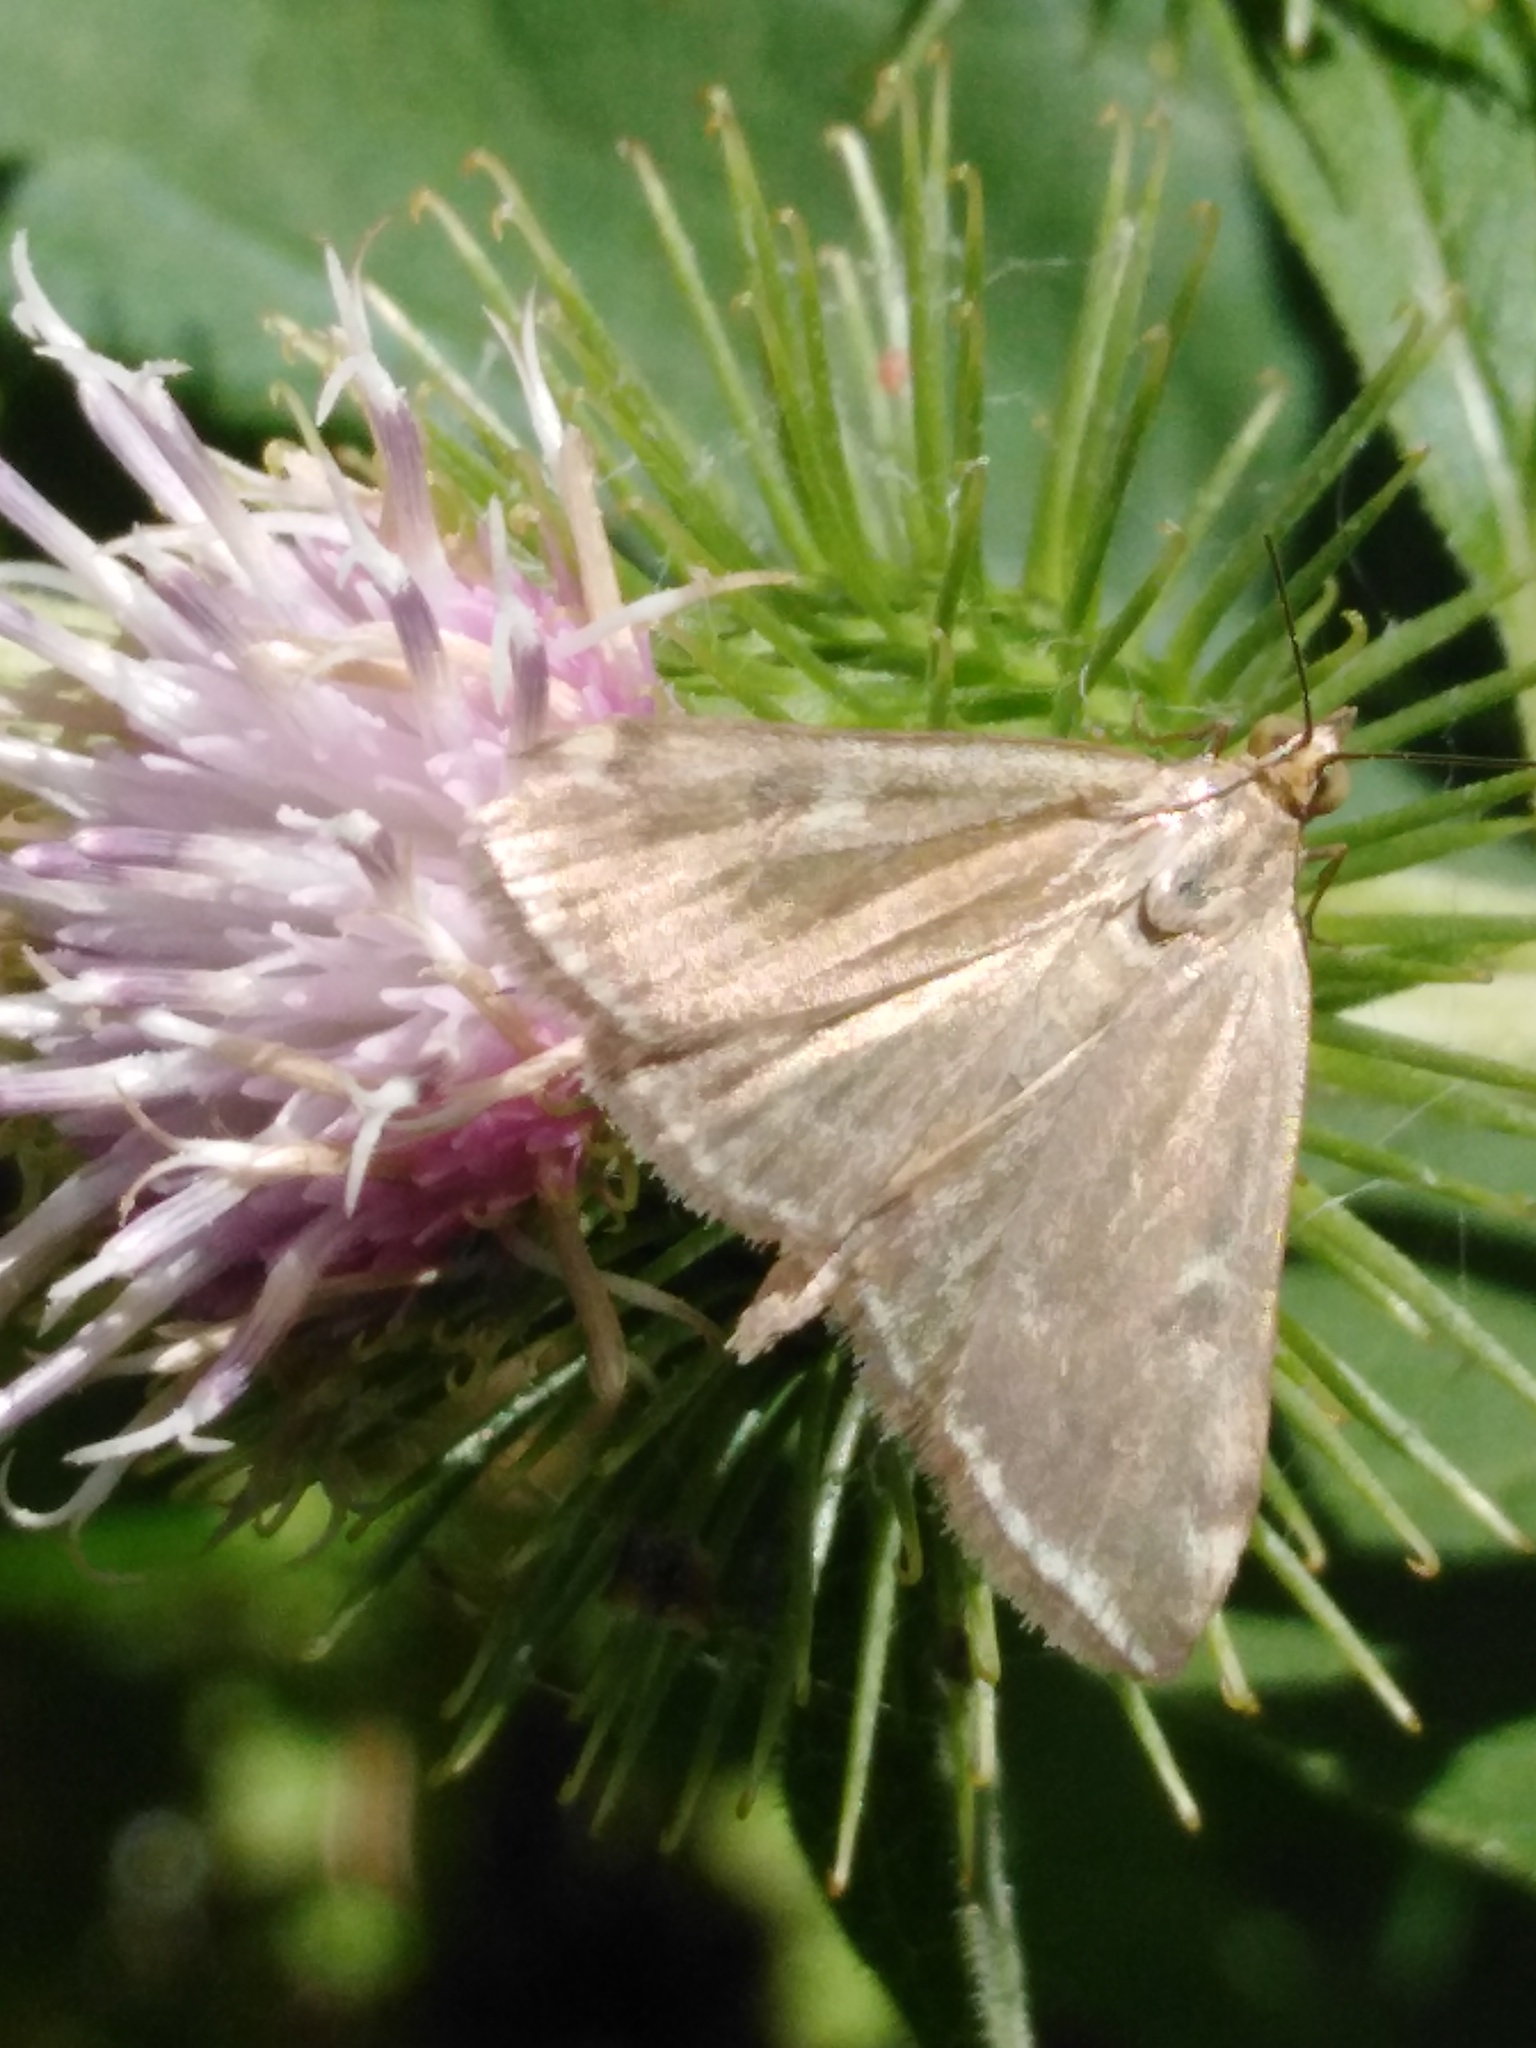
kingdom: Animalia
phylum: Arthropoda
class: Insecta
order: Lepidoptera
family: Crambidae
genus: Loxostege
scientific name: Loxostege sticticalis
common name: Crambid moth
